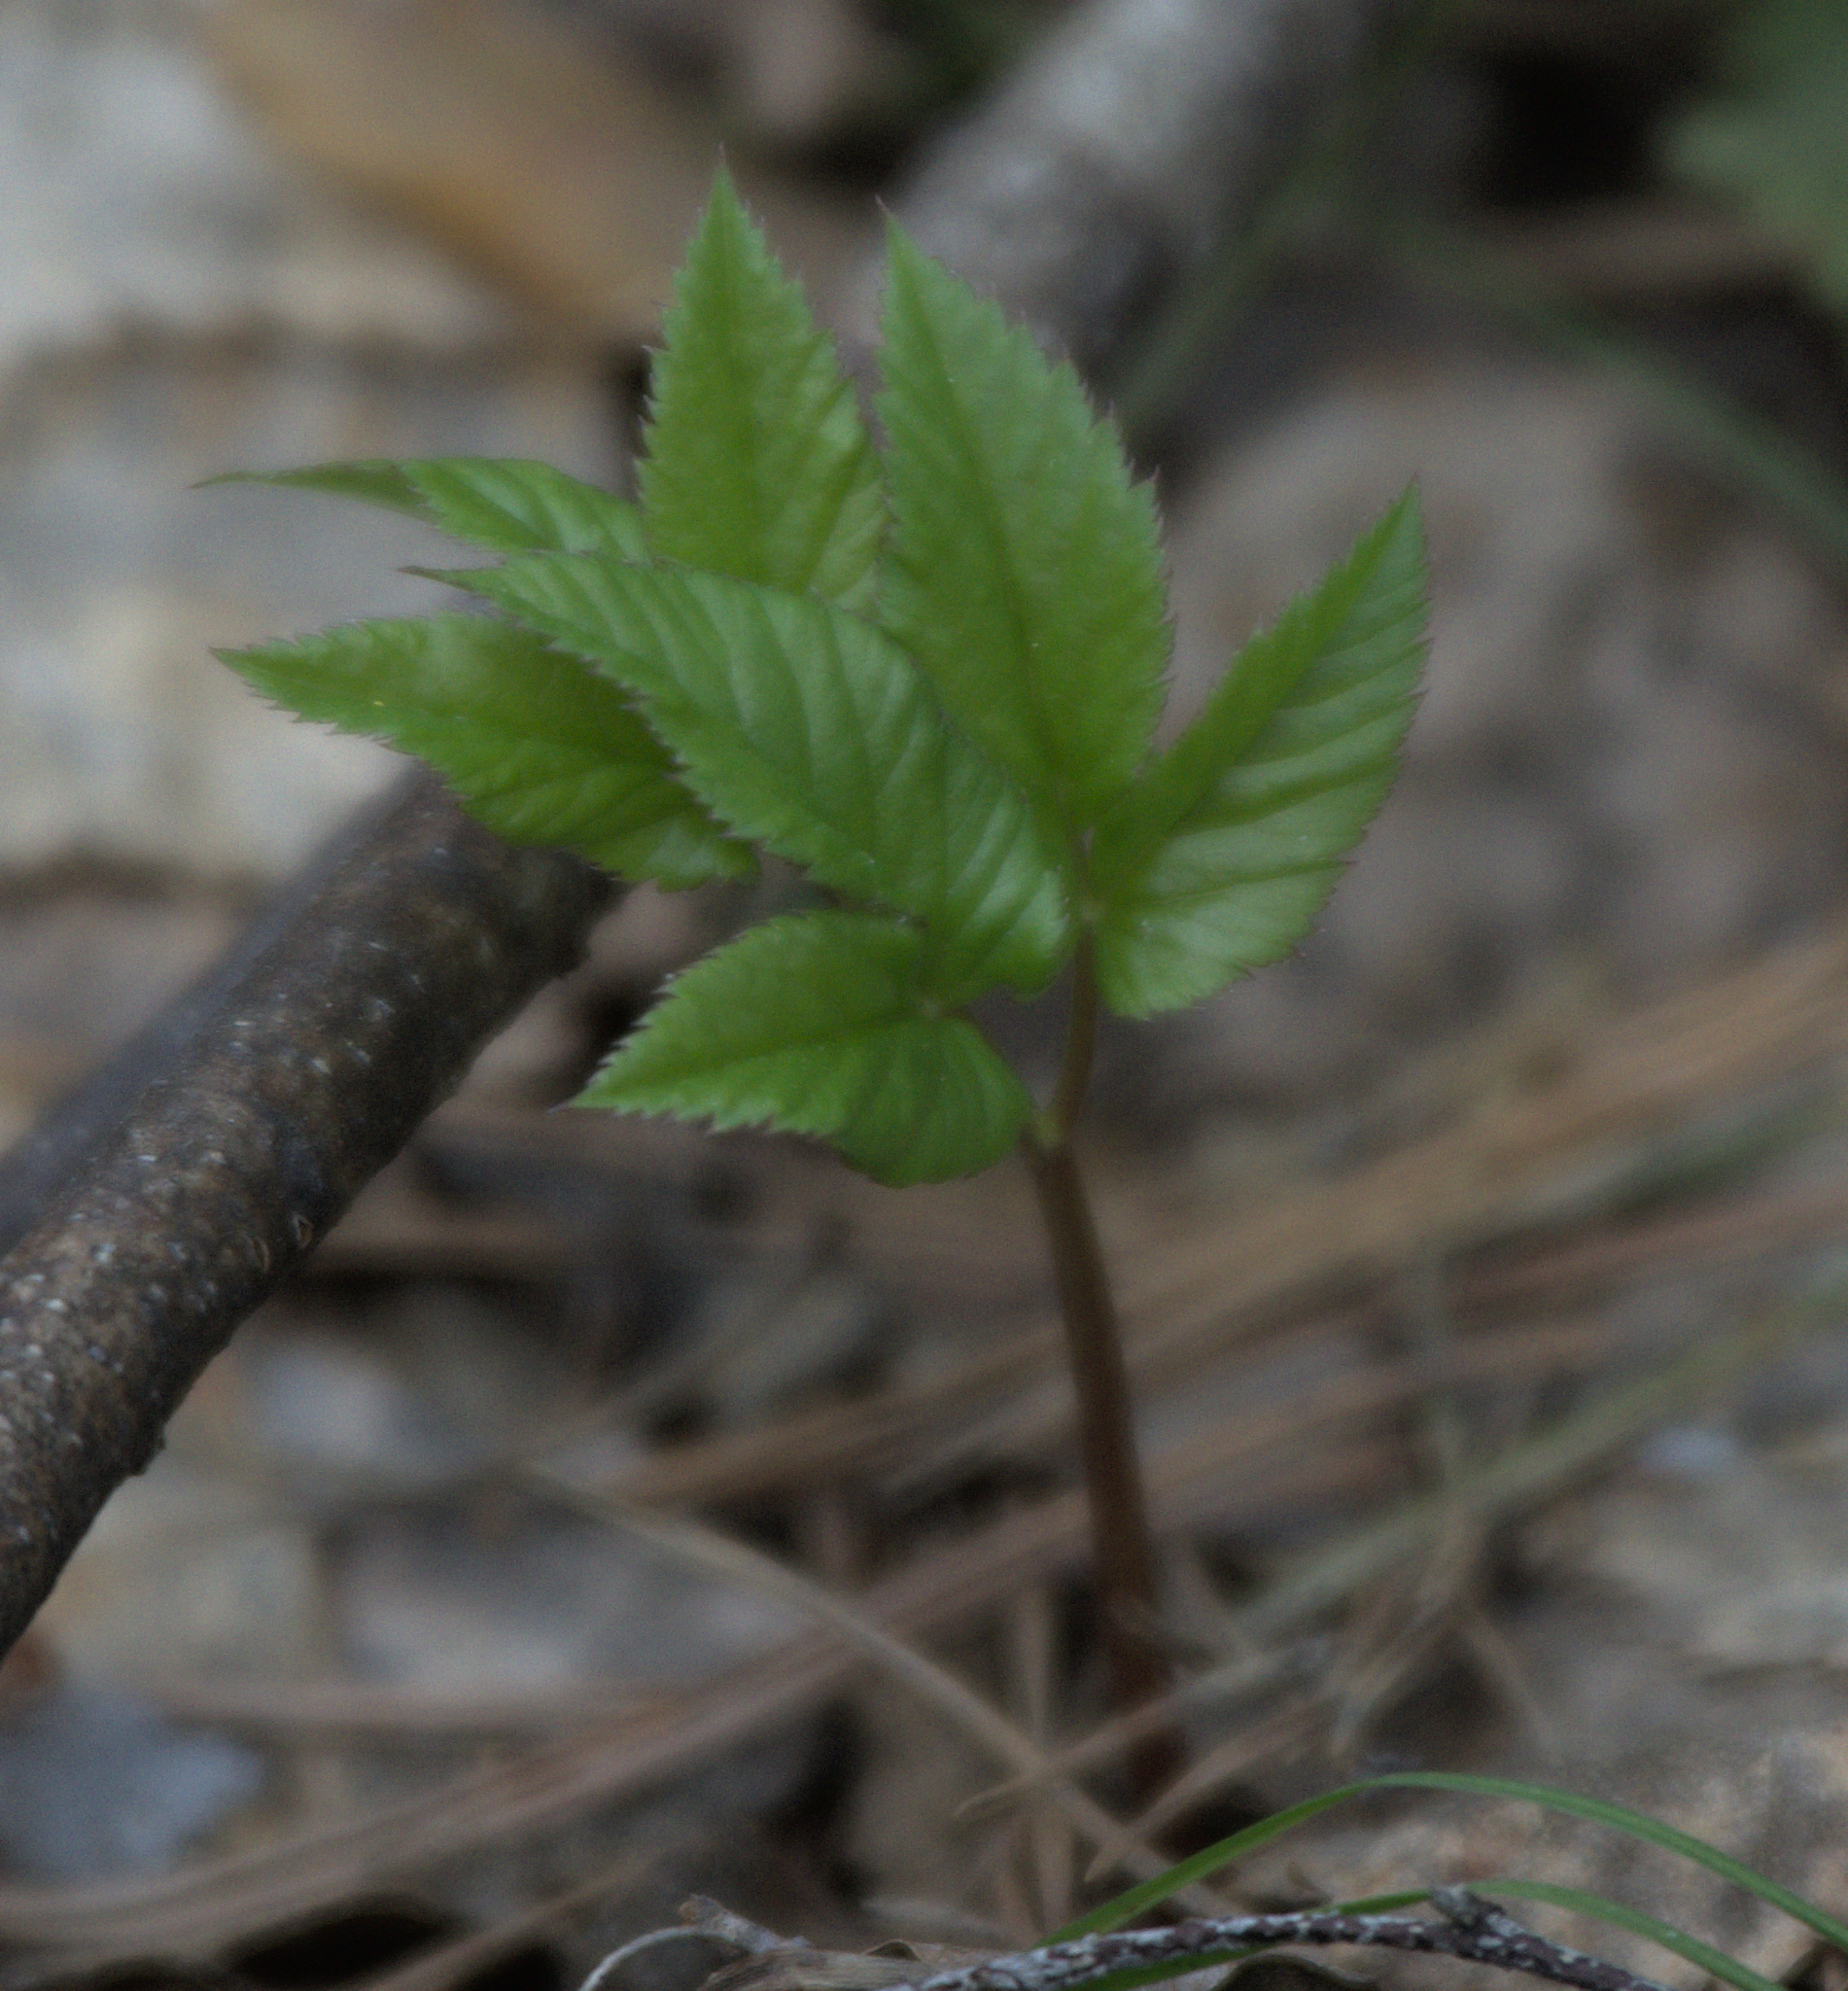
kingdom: Plantae
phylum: Tracheophyta
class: Magnoliopsida
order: Apiales
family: Apiaceae
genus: Aegopodium
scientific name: Aegopodium podagraria
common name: Ground-elder
